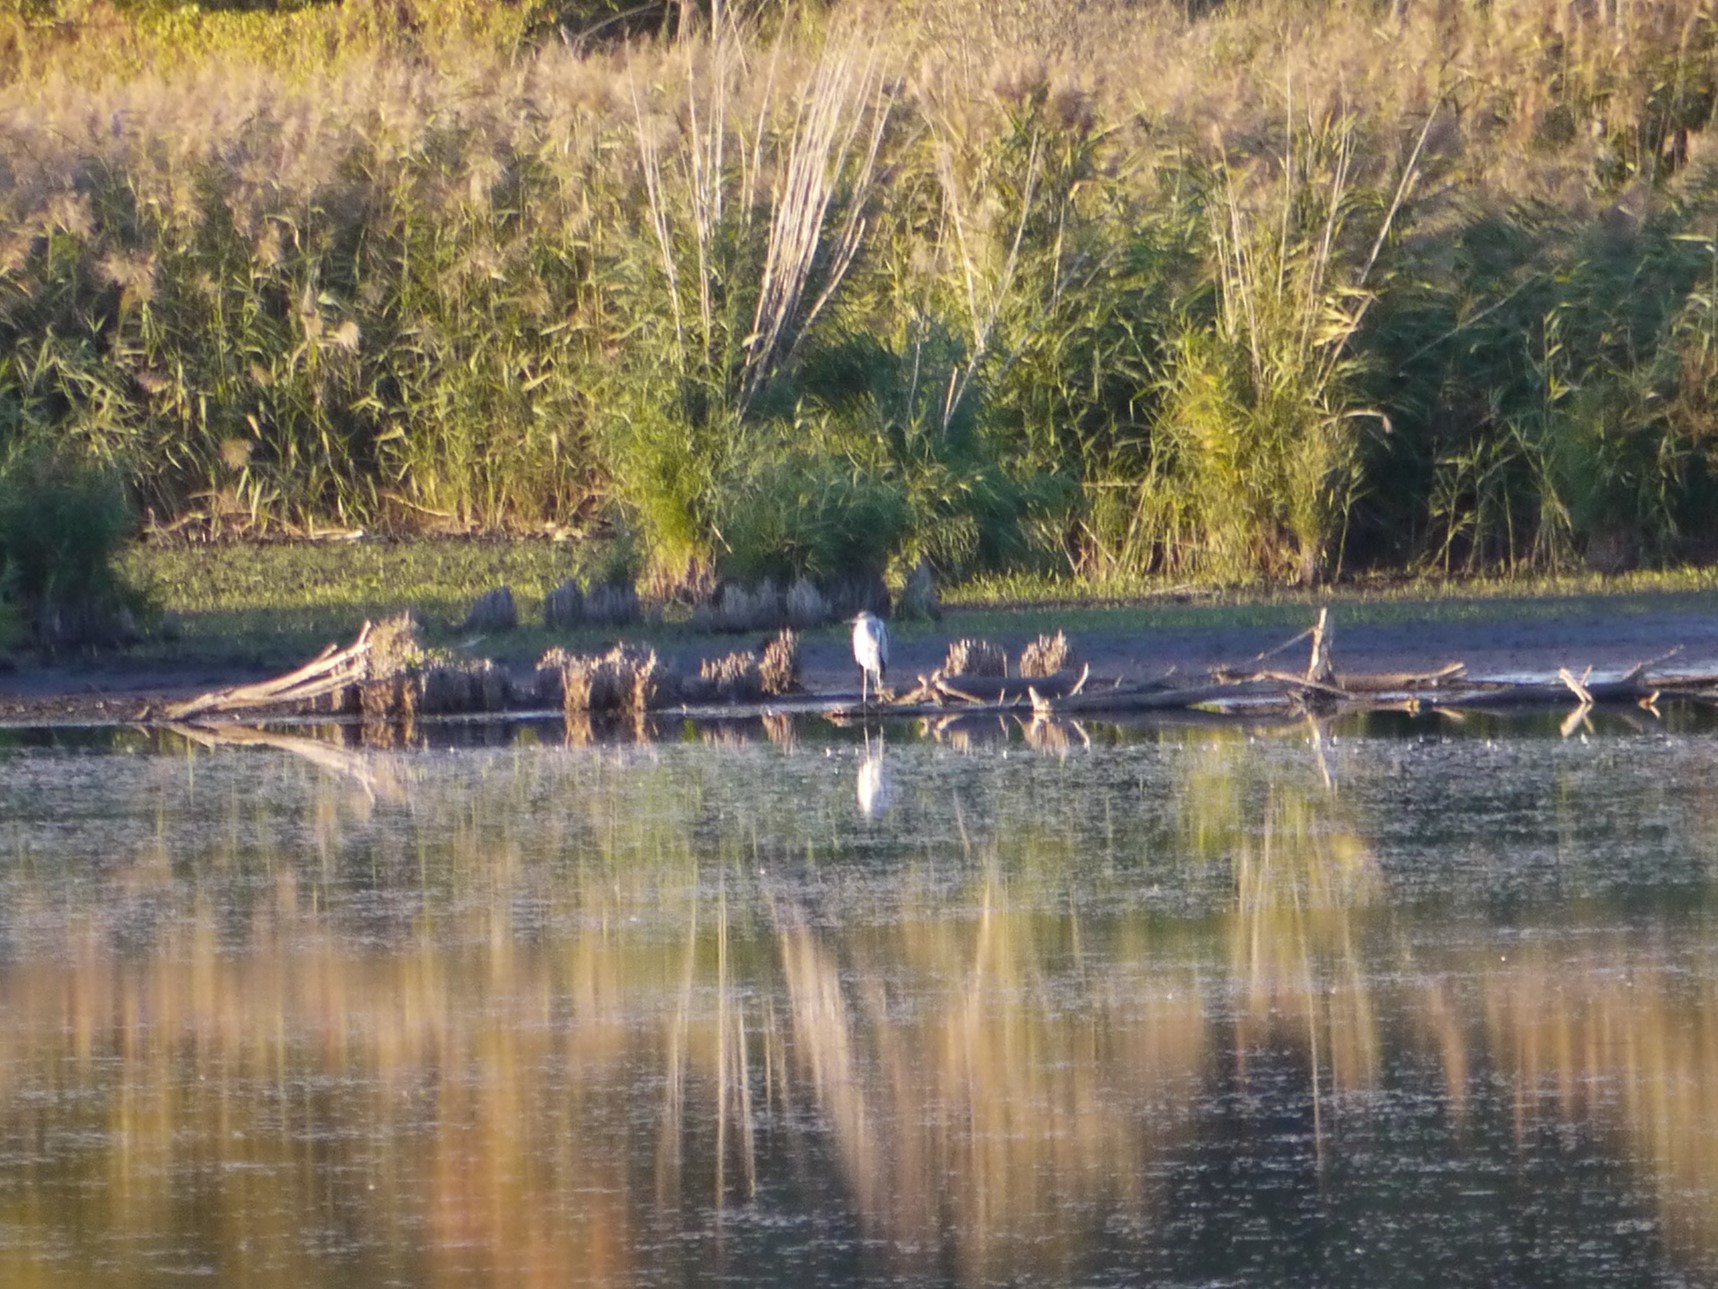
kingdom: Animalia
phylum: Chordata
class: Aves
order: Pelecaniformes
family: Ardeidae
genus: Ardea
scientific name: Ardea cinerea
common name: Grey heron
